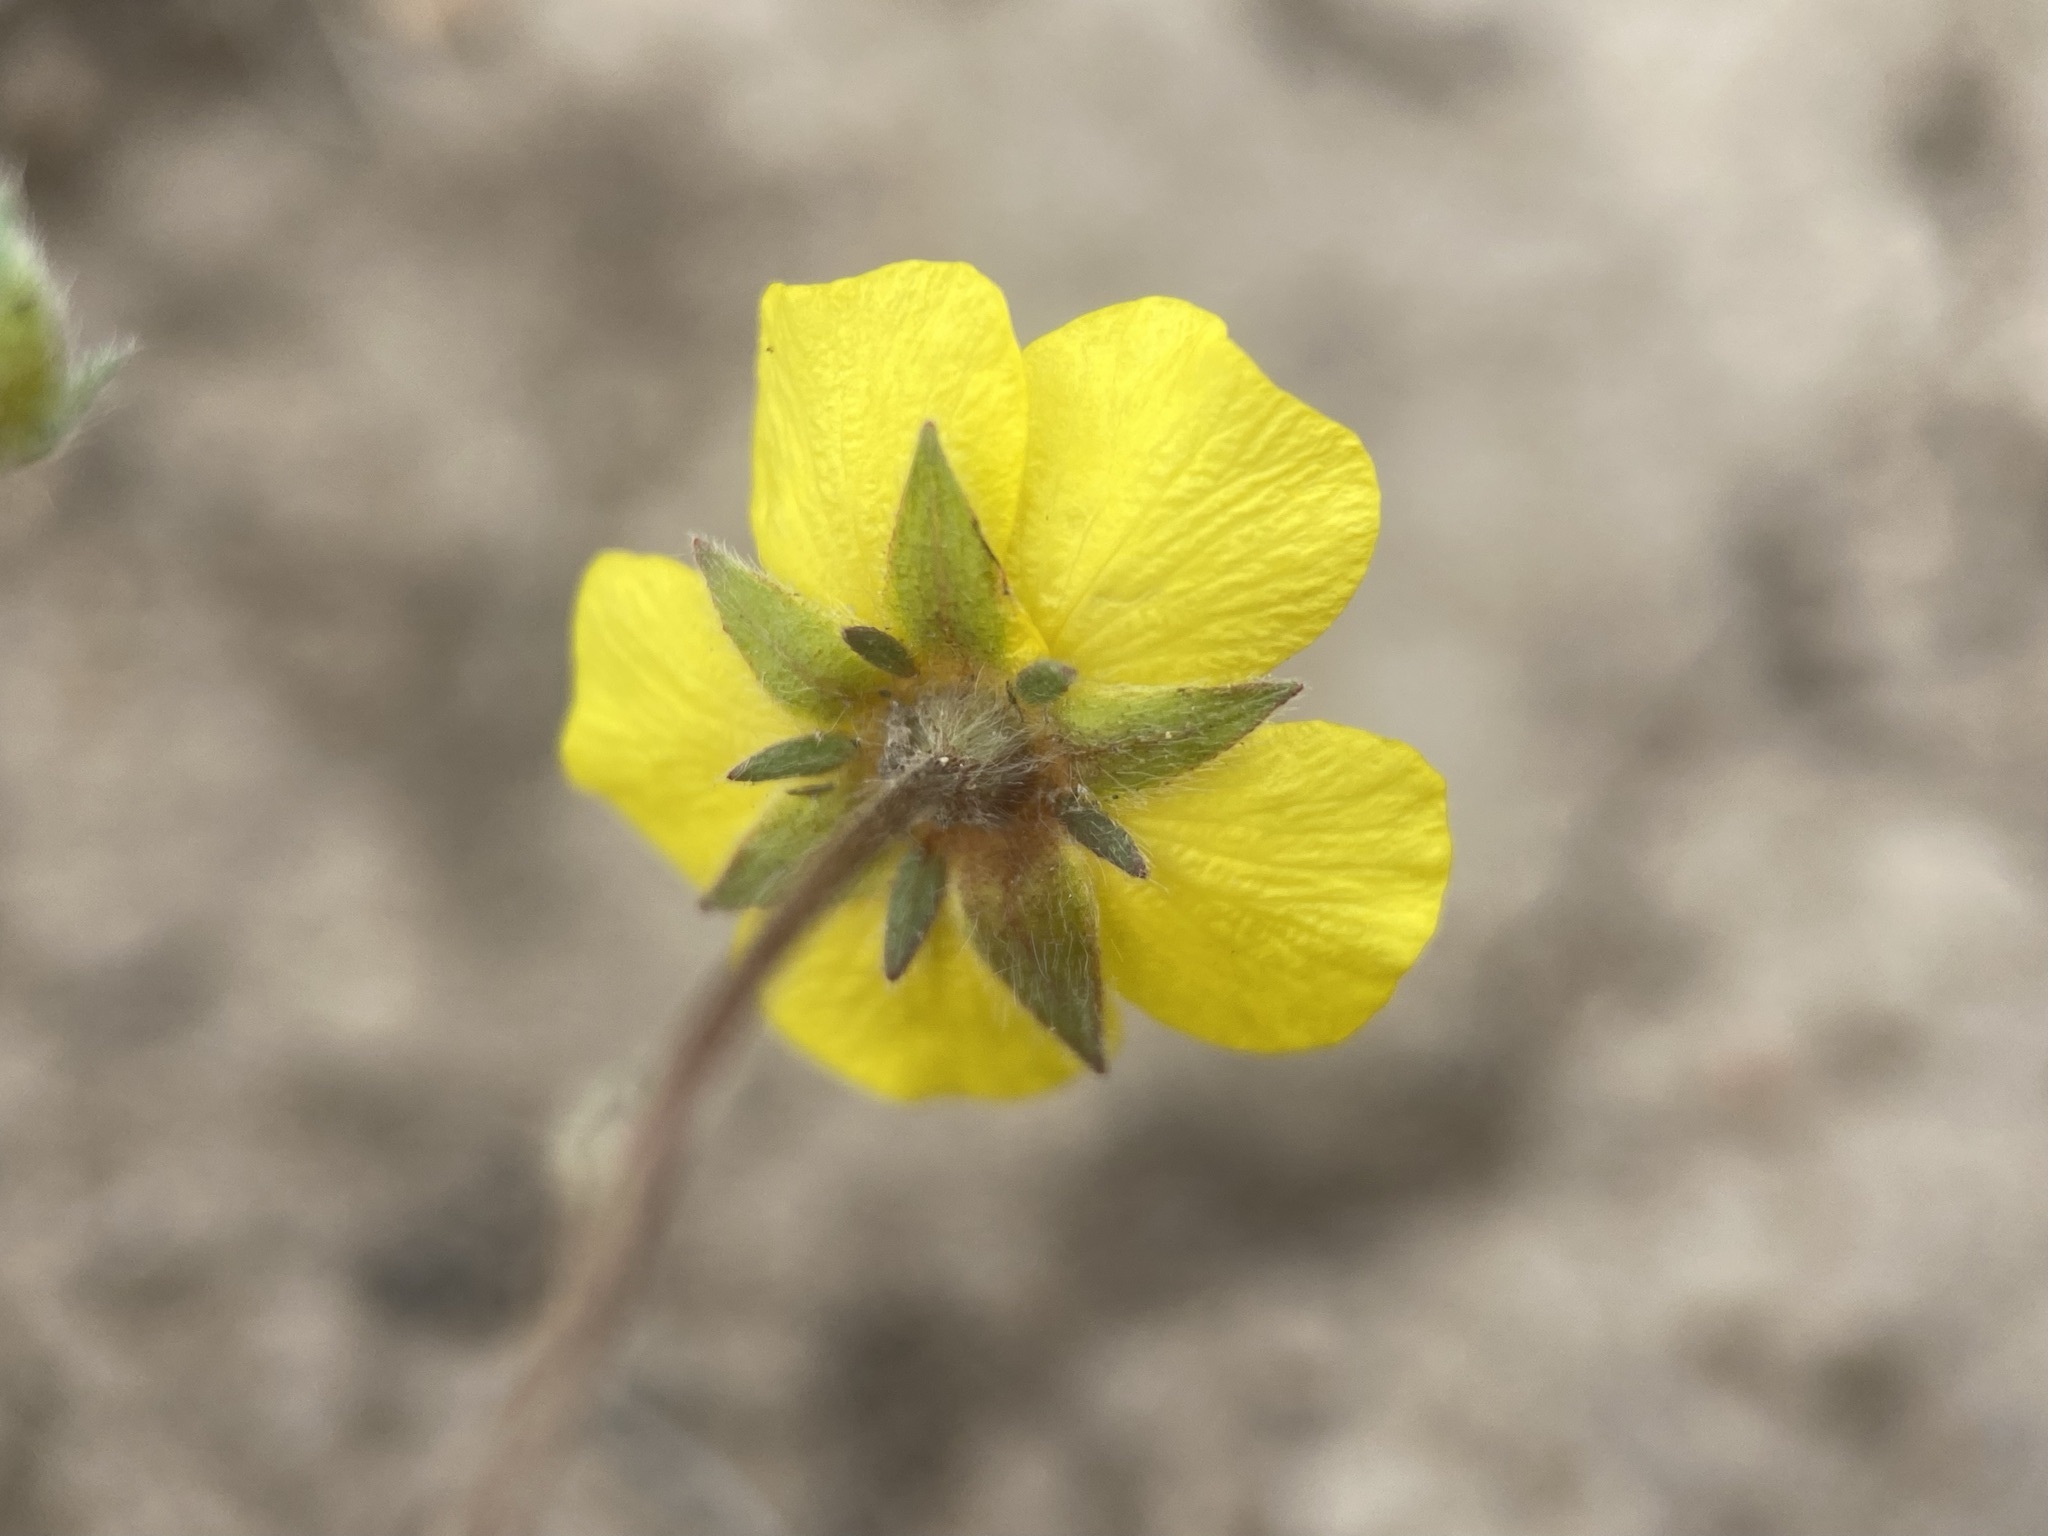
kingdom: Plantae
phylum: Tracheophyta
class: Magnoliopsida
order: Rosales
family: Rosaceae
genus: Potentilla
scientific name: Potentilla glaucophylla
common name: Blue-leaved cinquefoil
